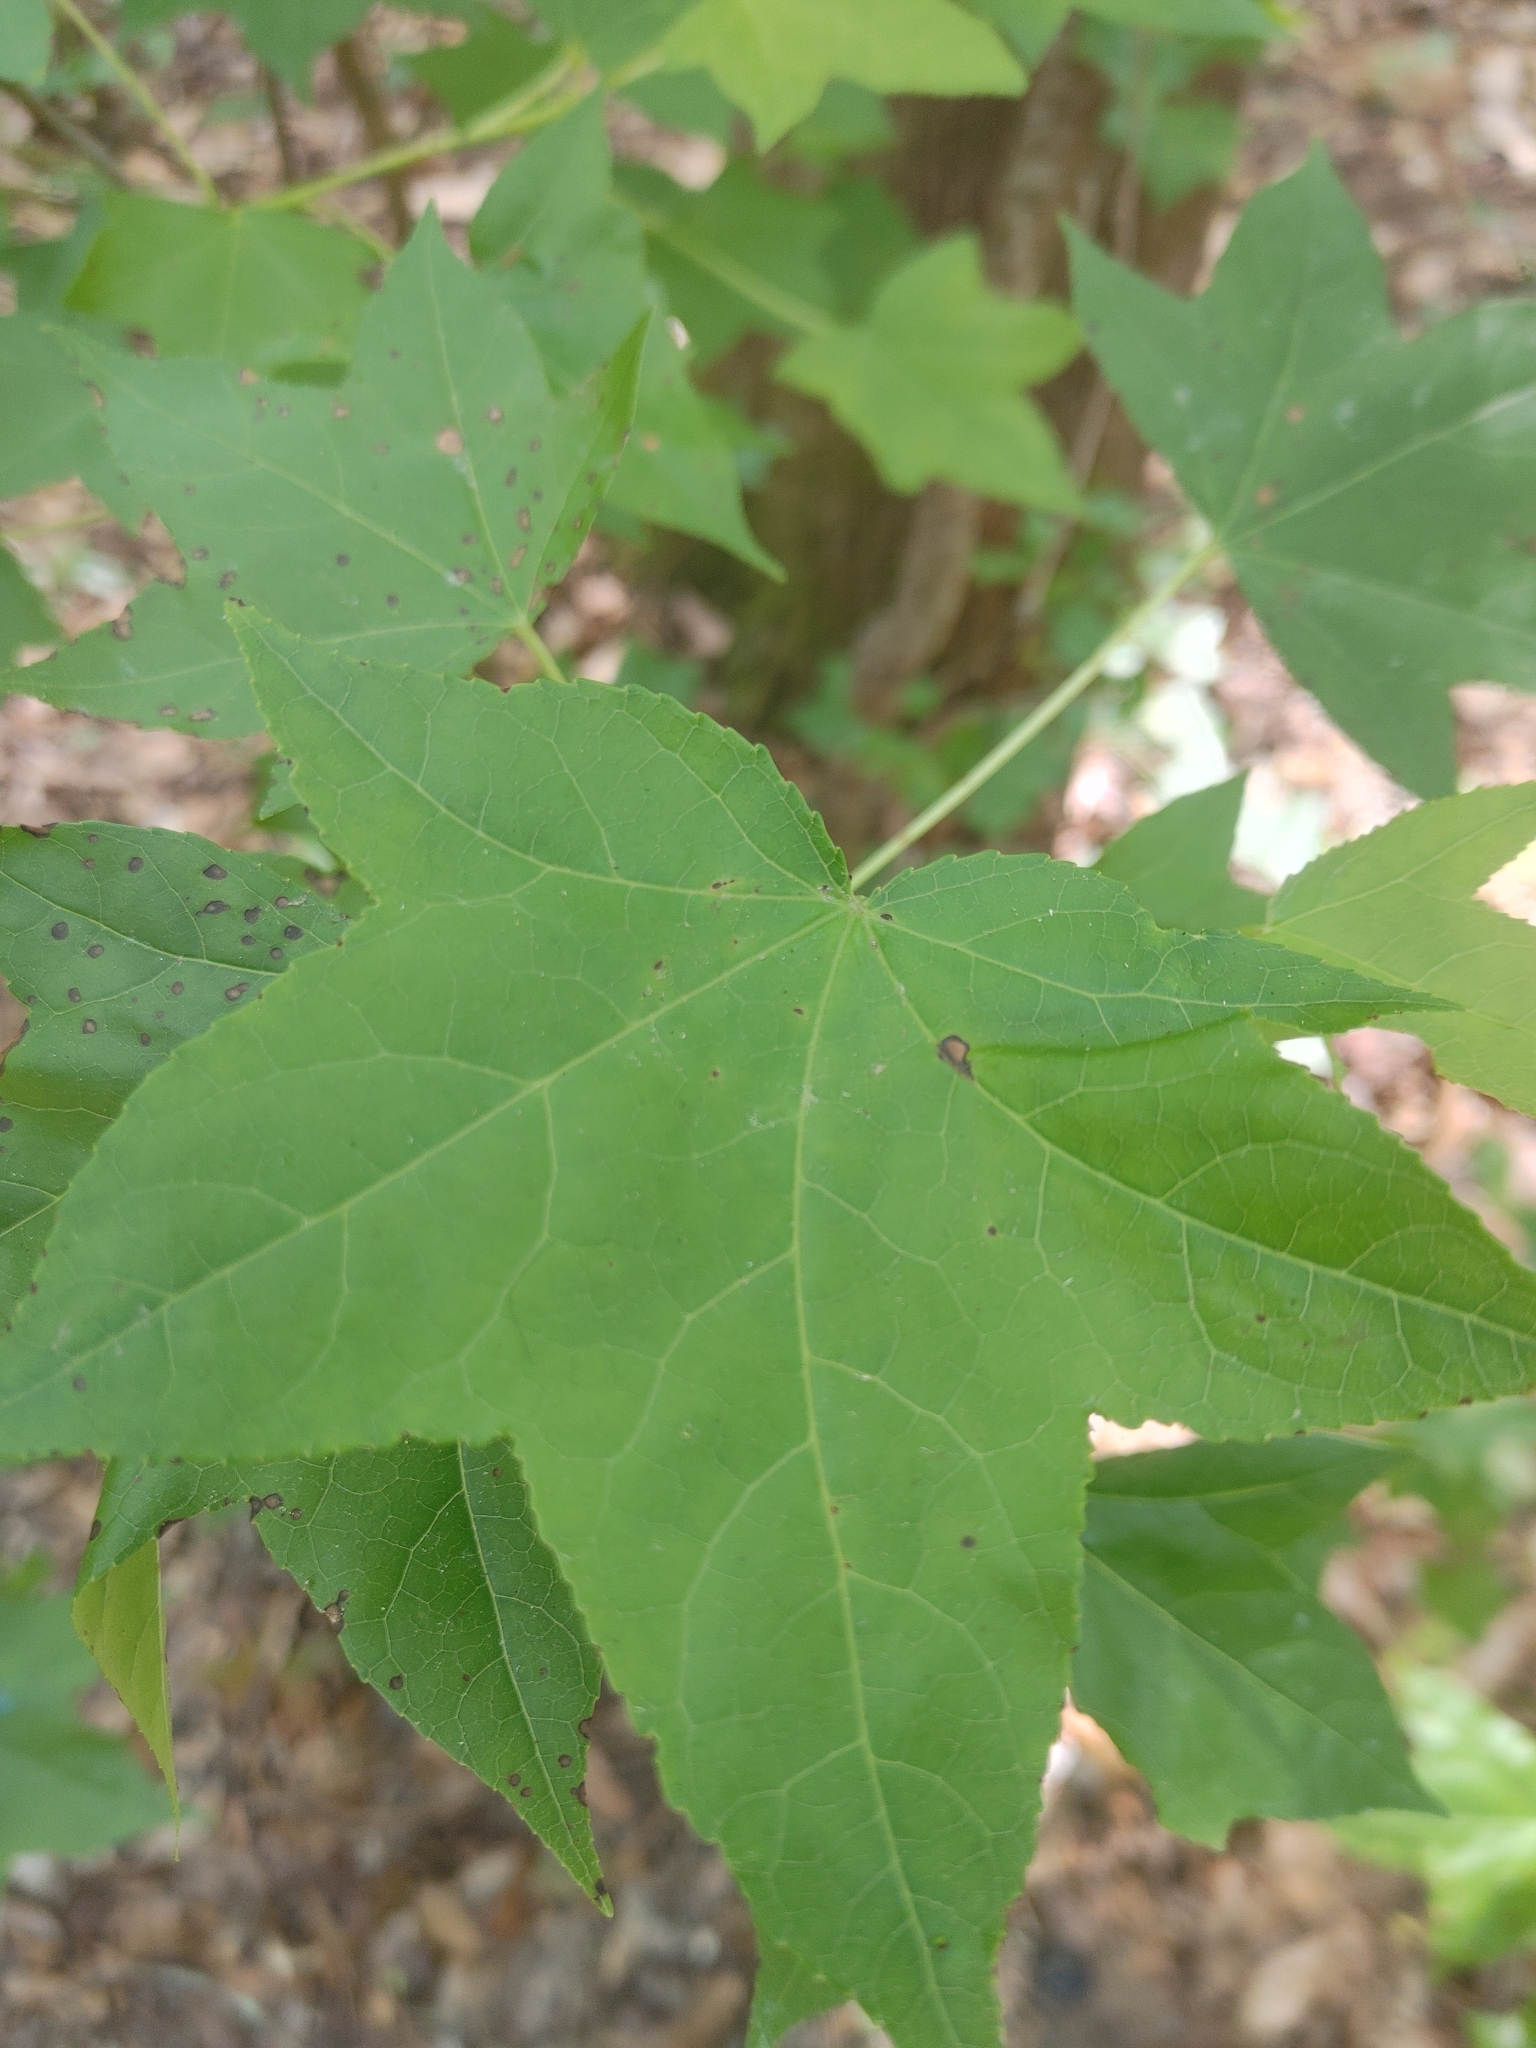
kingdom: Plantae
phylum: Tracheophyta
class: Magnoliopsida
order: Saxifragales
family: Altingiaceae
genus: Liquidambar
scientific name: Liquidambar styraciflua
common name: Sweet gum
